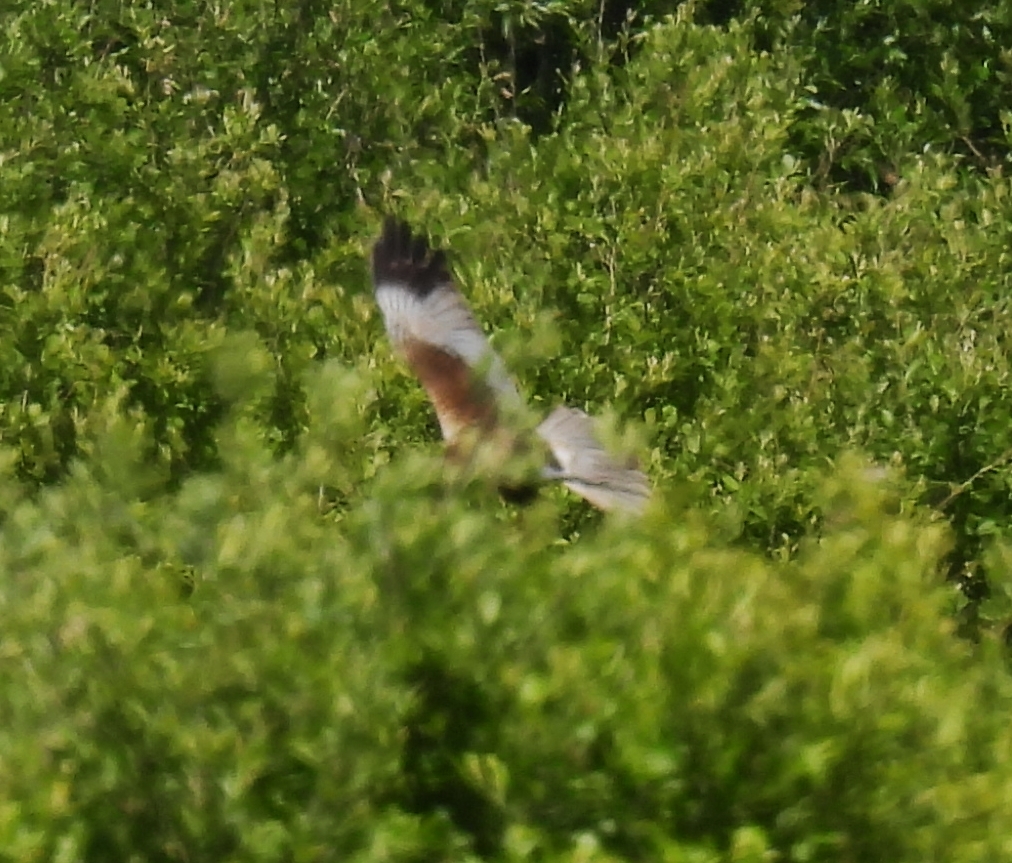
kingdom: Animalia
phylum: Chordata
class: Aves
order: Accipitriformes
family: Accipitridae
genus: Circus
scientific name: Circus aeruginosus
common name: Western marsh harrier
